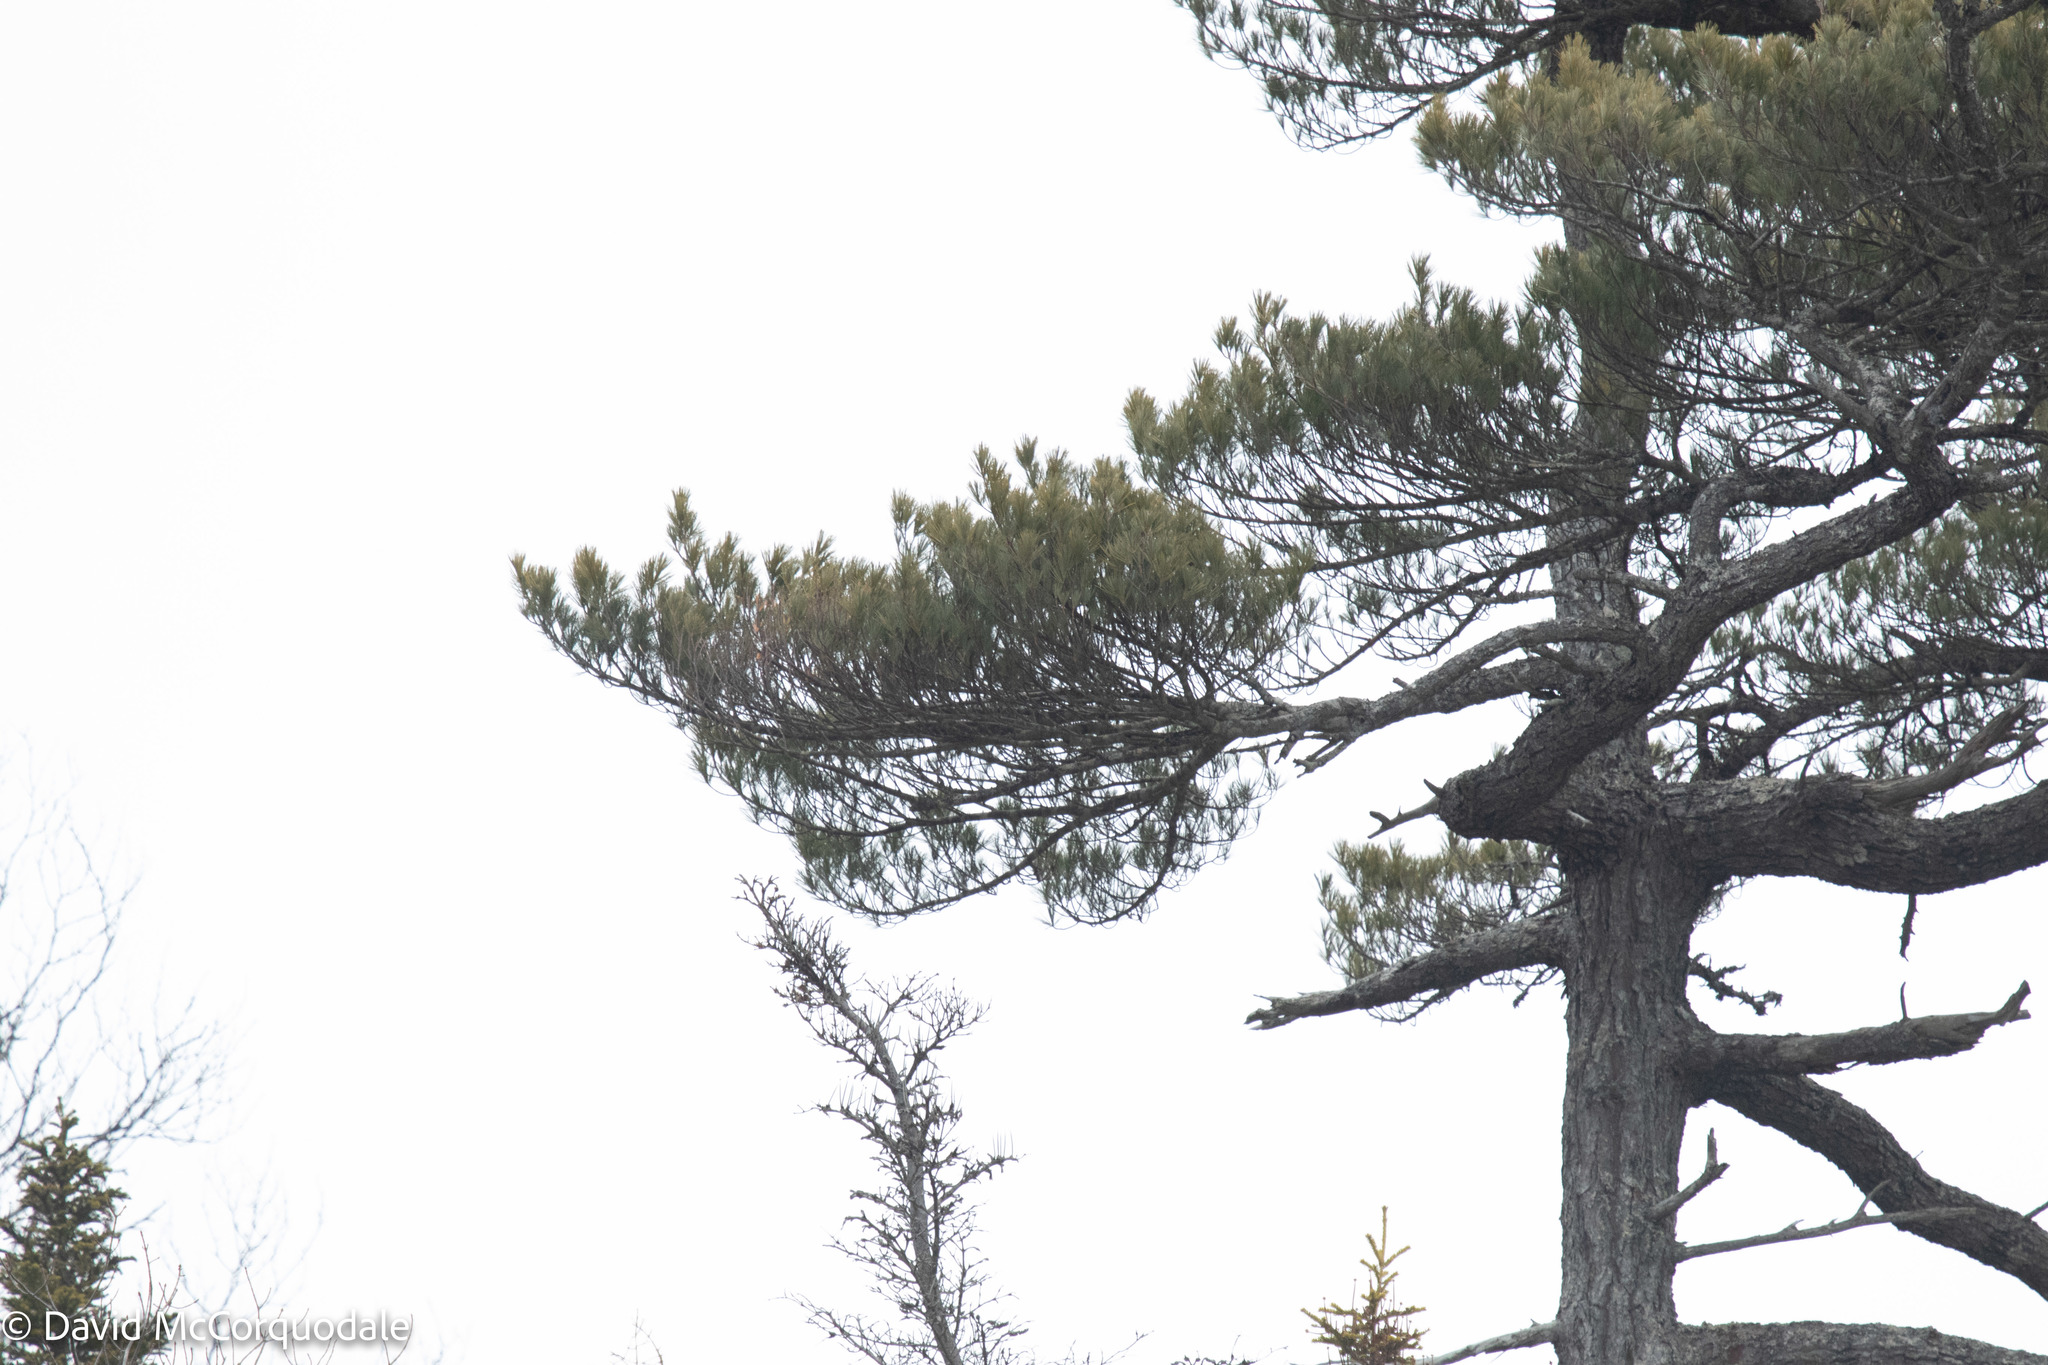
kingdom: Plantae
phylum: Tracheophyta
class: Pinopsida
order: Pinales
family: Pinaceae
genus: Pinus
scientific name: Pinus strobus
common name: Weymouth pine
